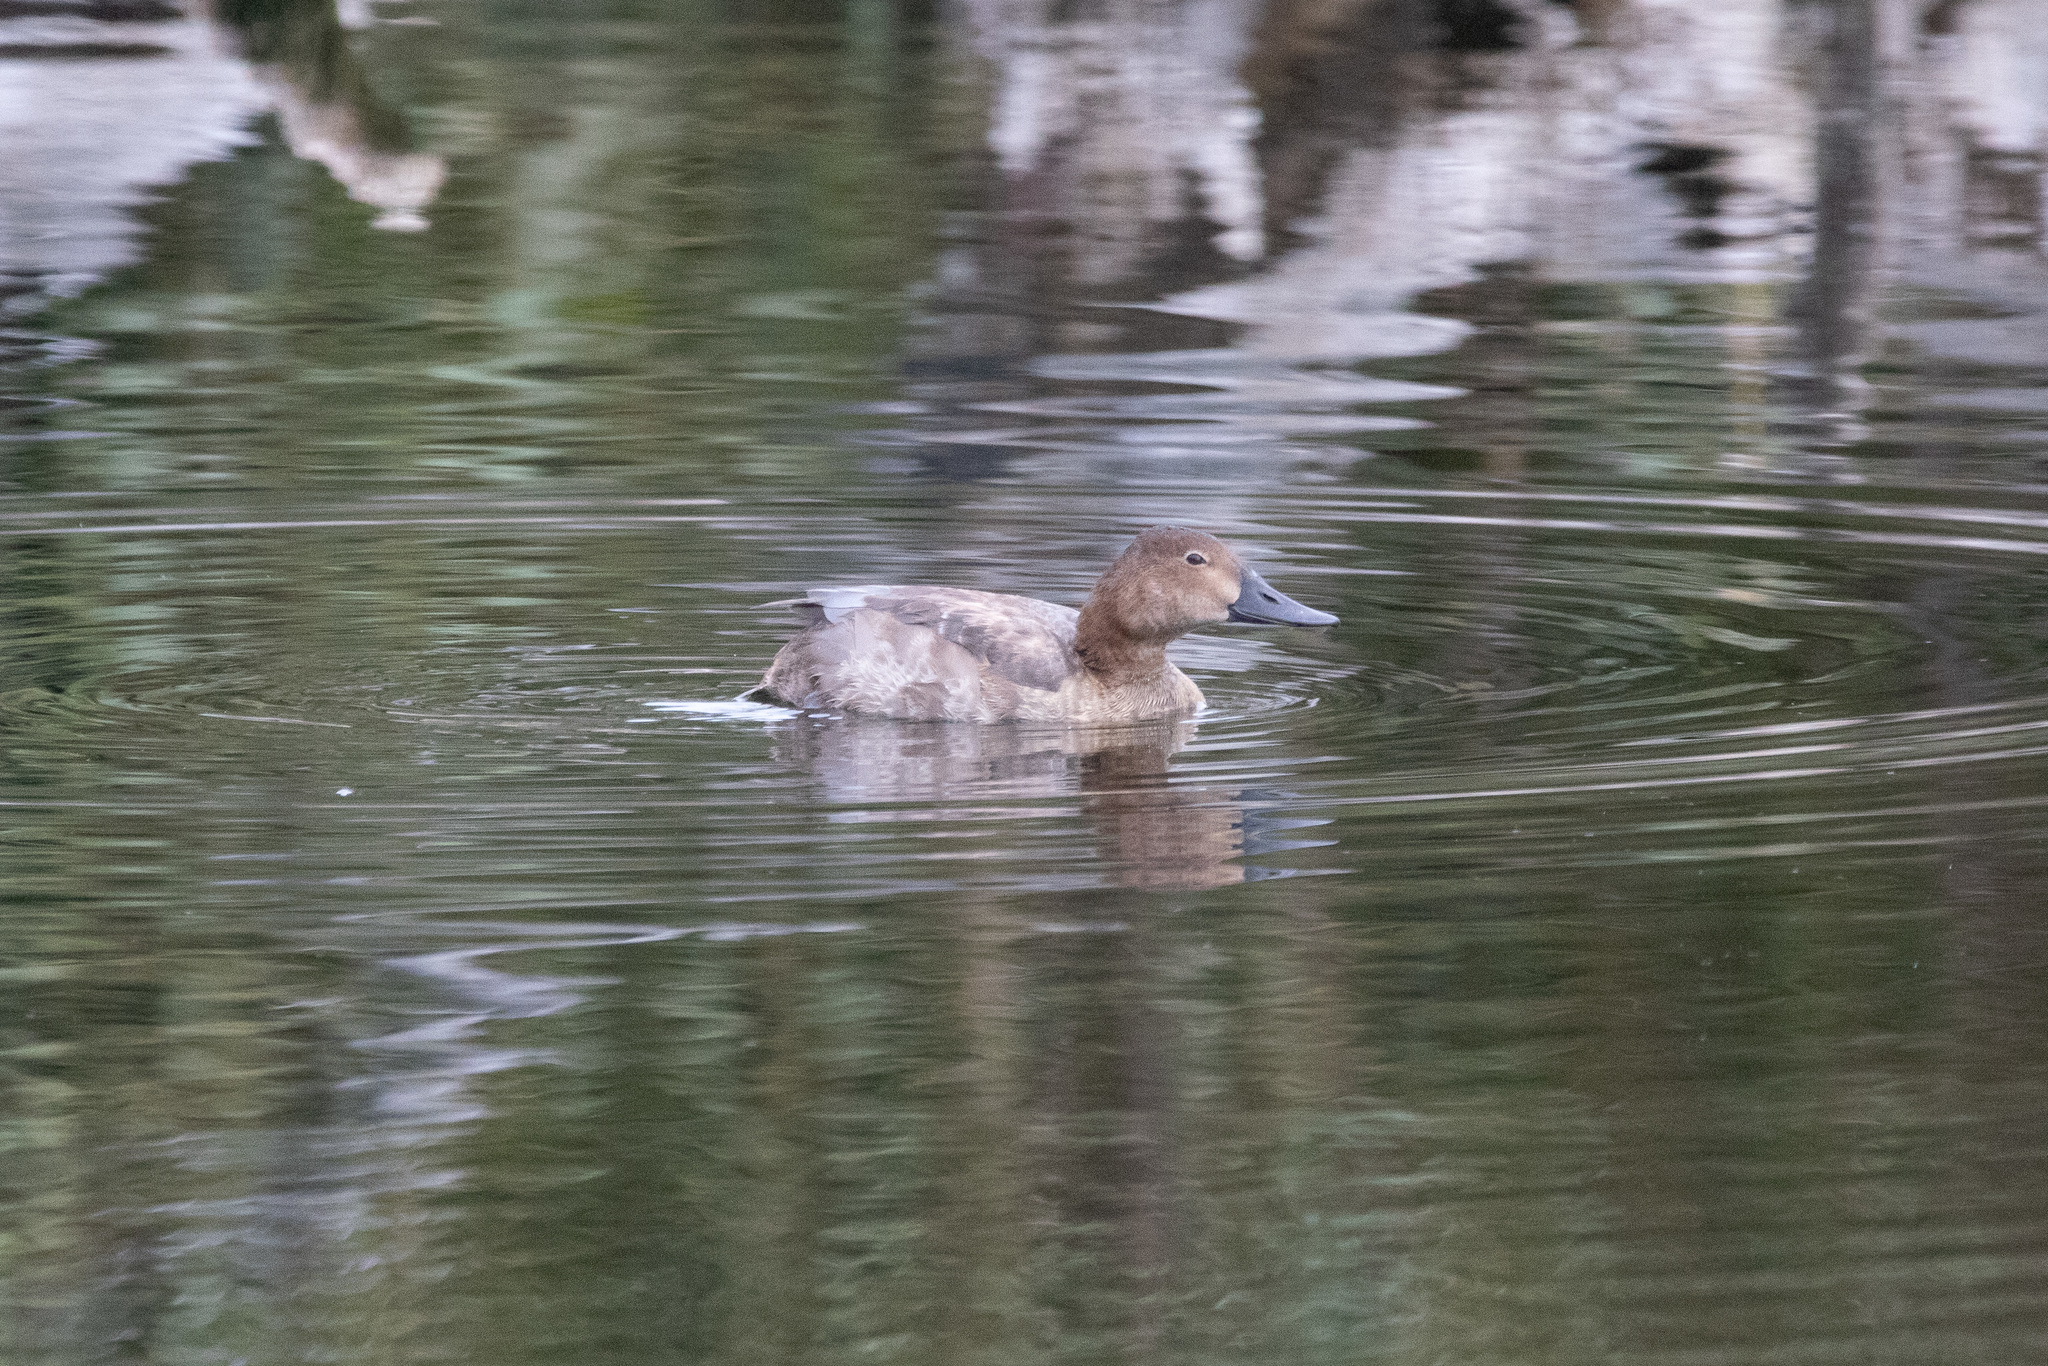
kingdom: Animalia
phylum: Chordata
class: Aves
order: Anseriformes
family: Anatidae
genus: Aythya
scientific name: Aythya ferina
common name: Common pochard
